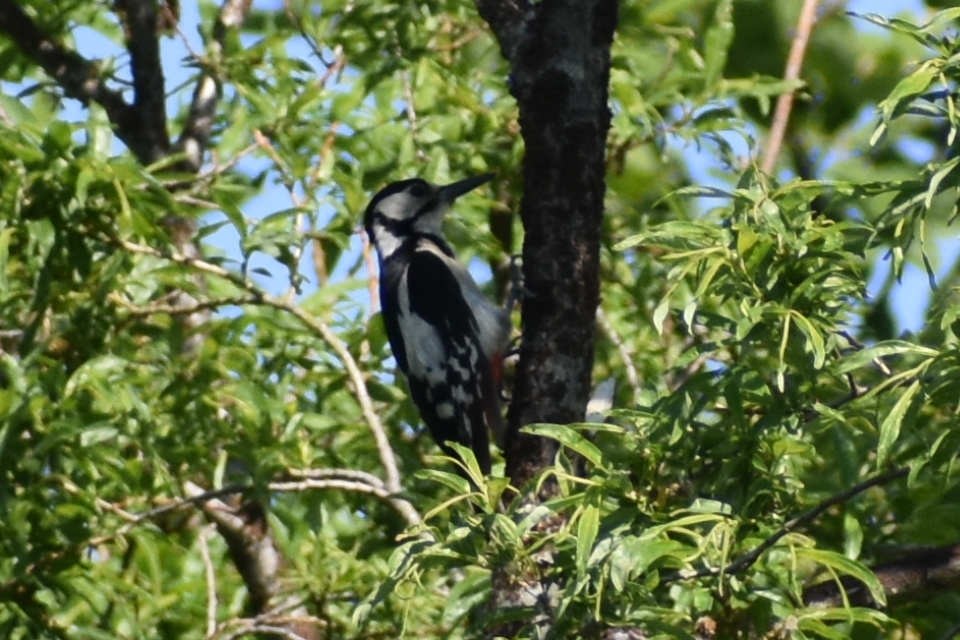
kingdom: Animalia
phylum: Chordata
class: Aves
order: Piciformes
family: Picidae
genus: Dendrocopos
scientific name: Dendrocopos major
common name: Great spotted woodpecker
